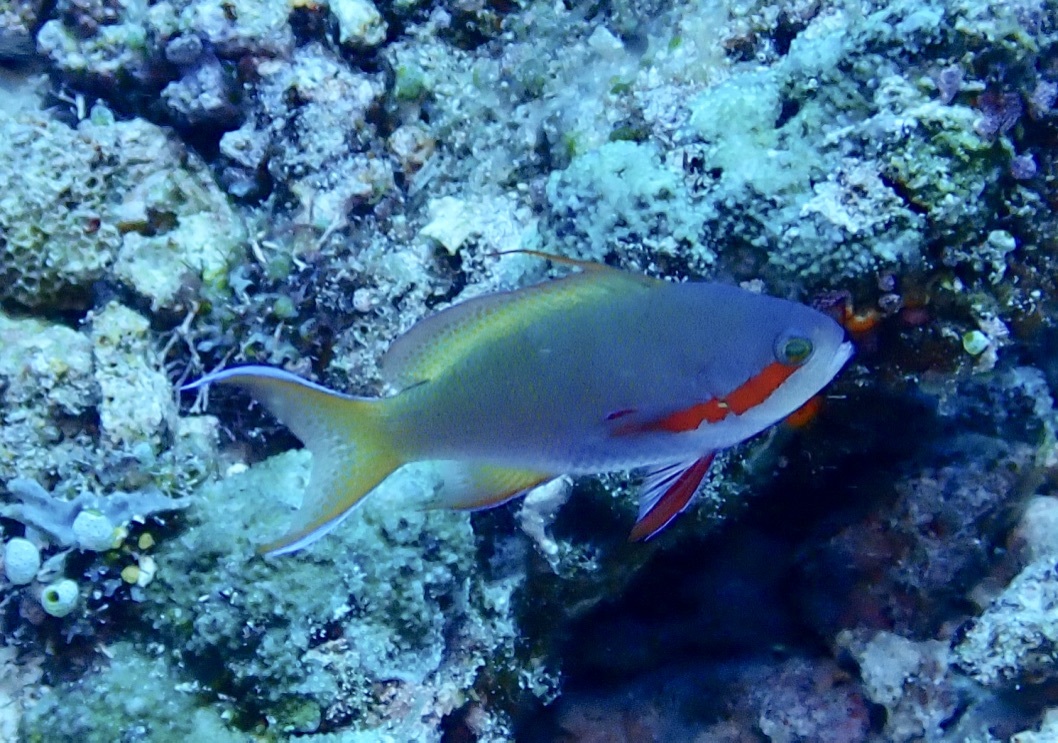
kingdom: Animalia
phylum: Chordata
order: Perciformes
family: Serranidae
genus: Pseudanthias
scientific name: Pseudanthias huchtii
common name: Pacific basslet
